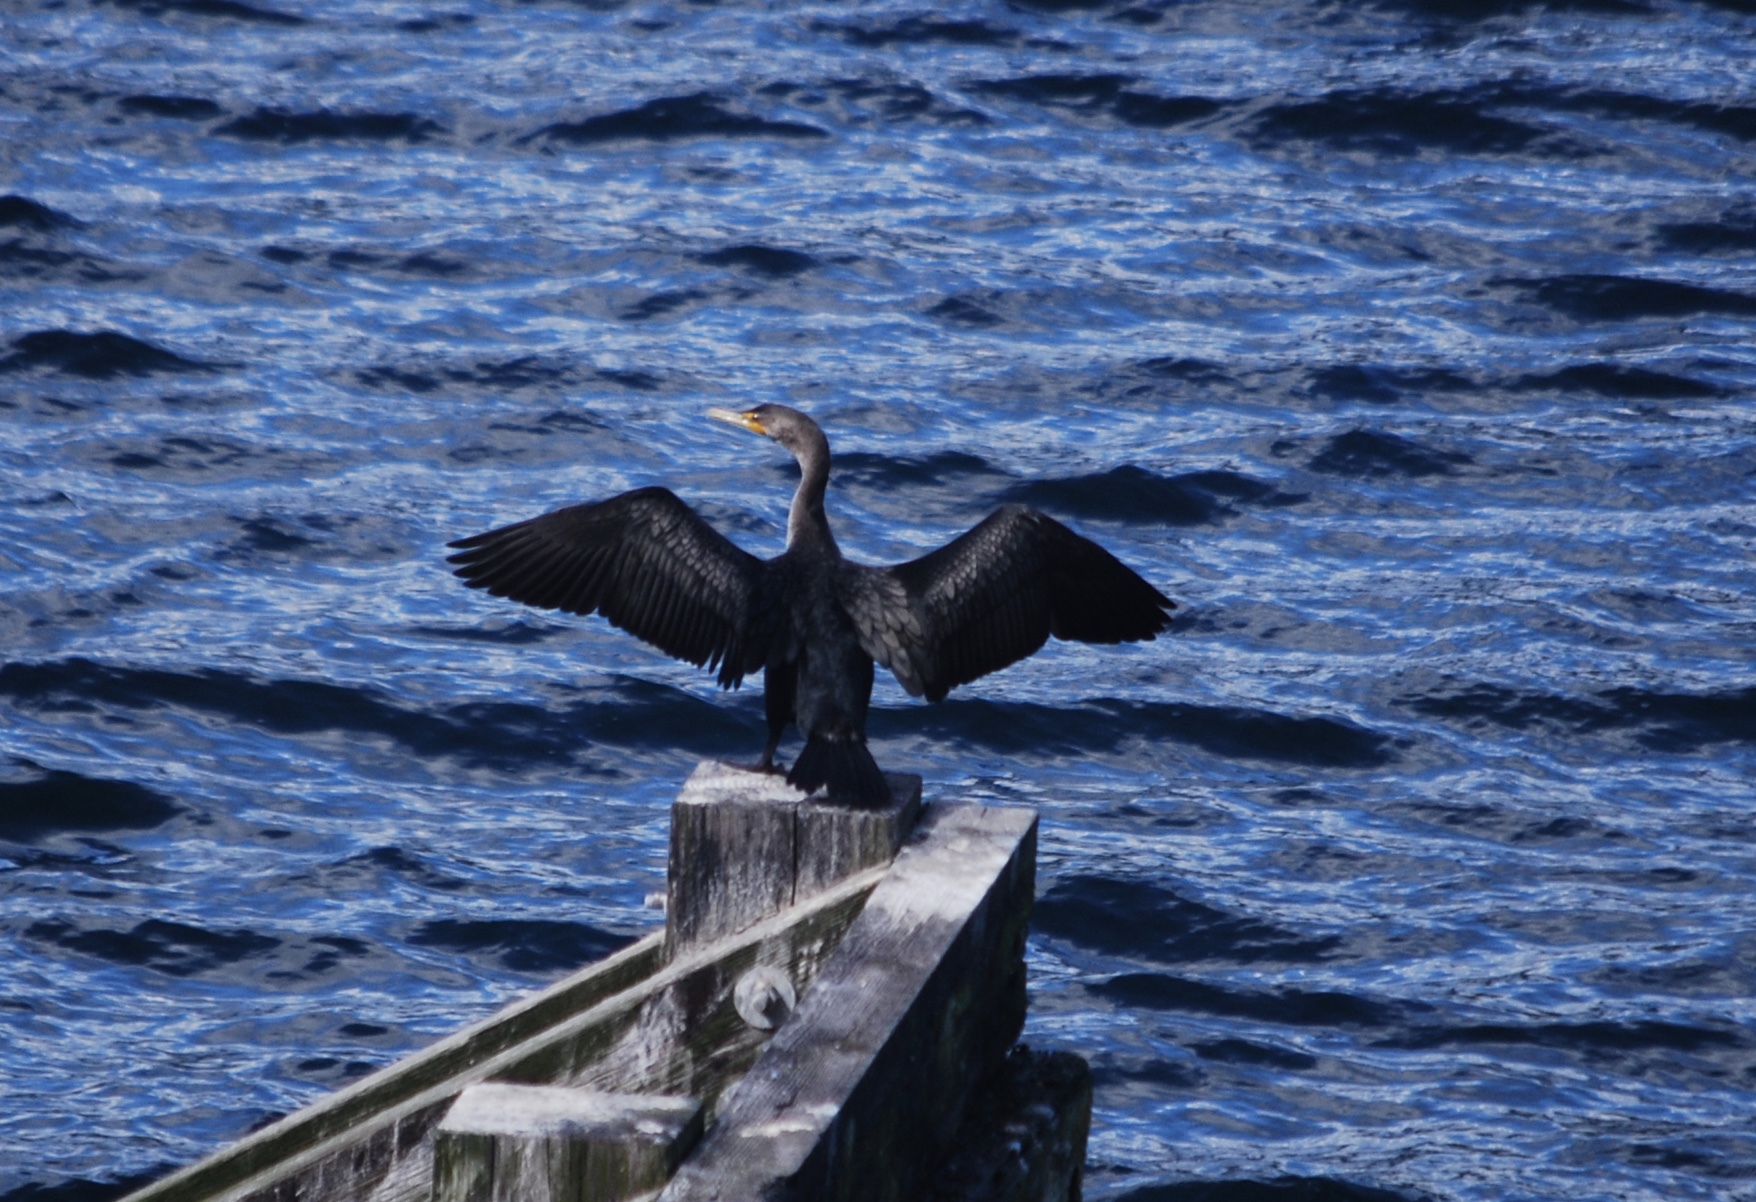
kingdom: Animalia
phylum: Chordata
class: Aves
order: Suliformes
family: Phalacrocoracidae
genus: Phalacrocorax
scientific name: Phalacrocorax auritus
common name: Double-crested cormorant
